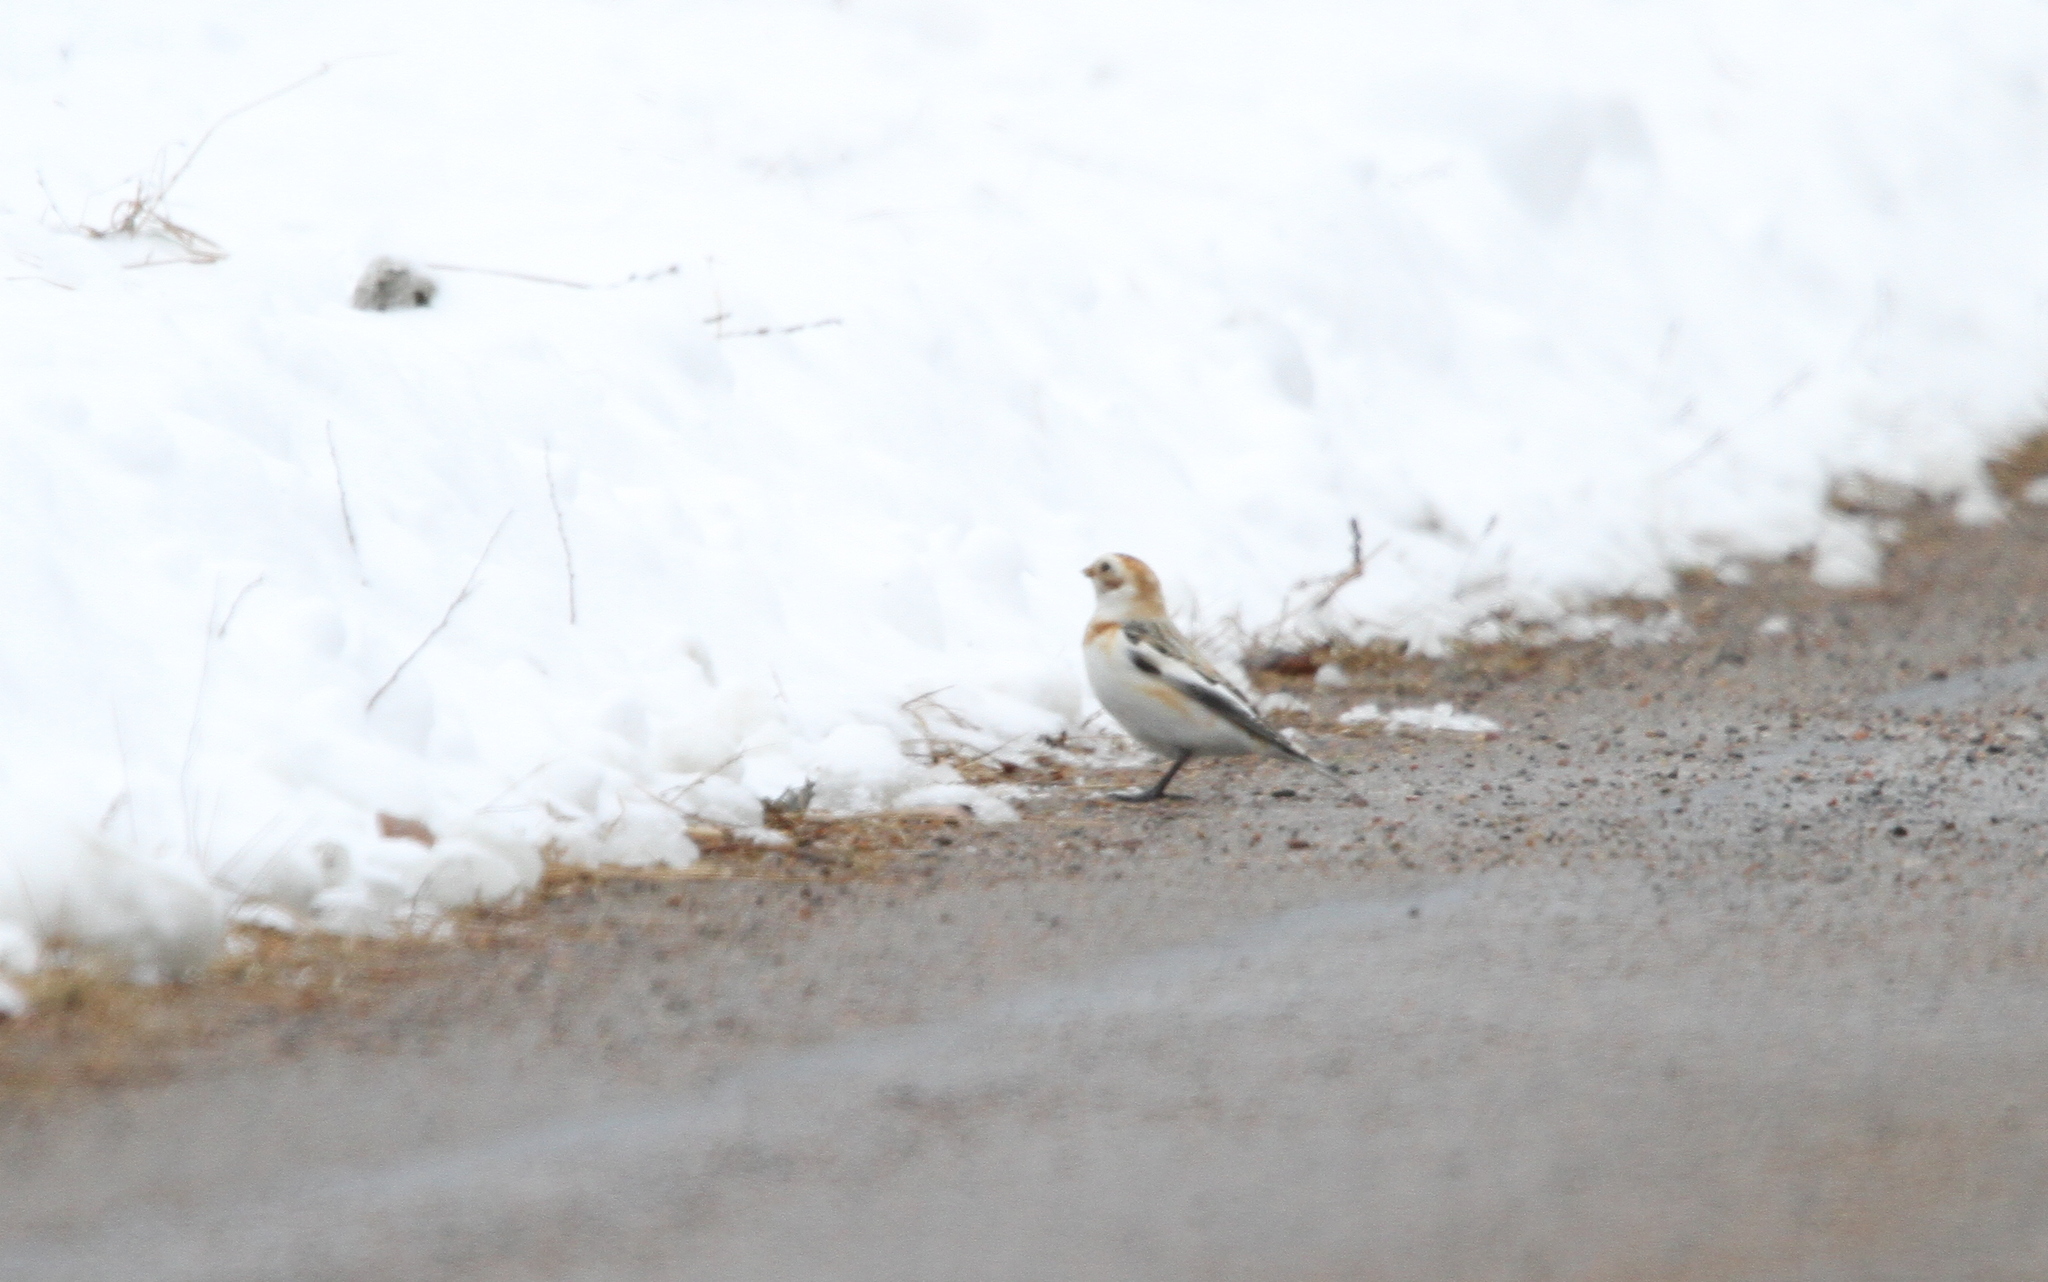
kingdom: Animalia
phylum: Chordata
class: Aves
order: Passeriformes
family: Calcariidae
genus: Plectrophenax
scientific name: Plectrophenax nivalis
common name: Snow bunting
